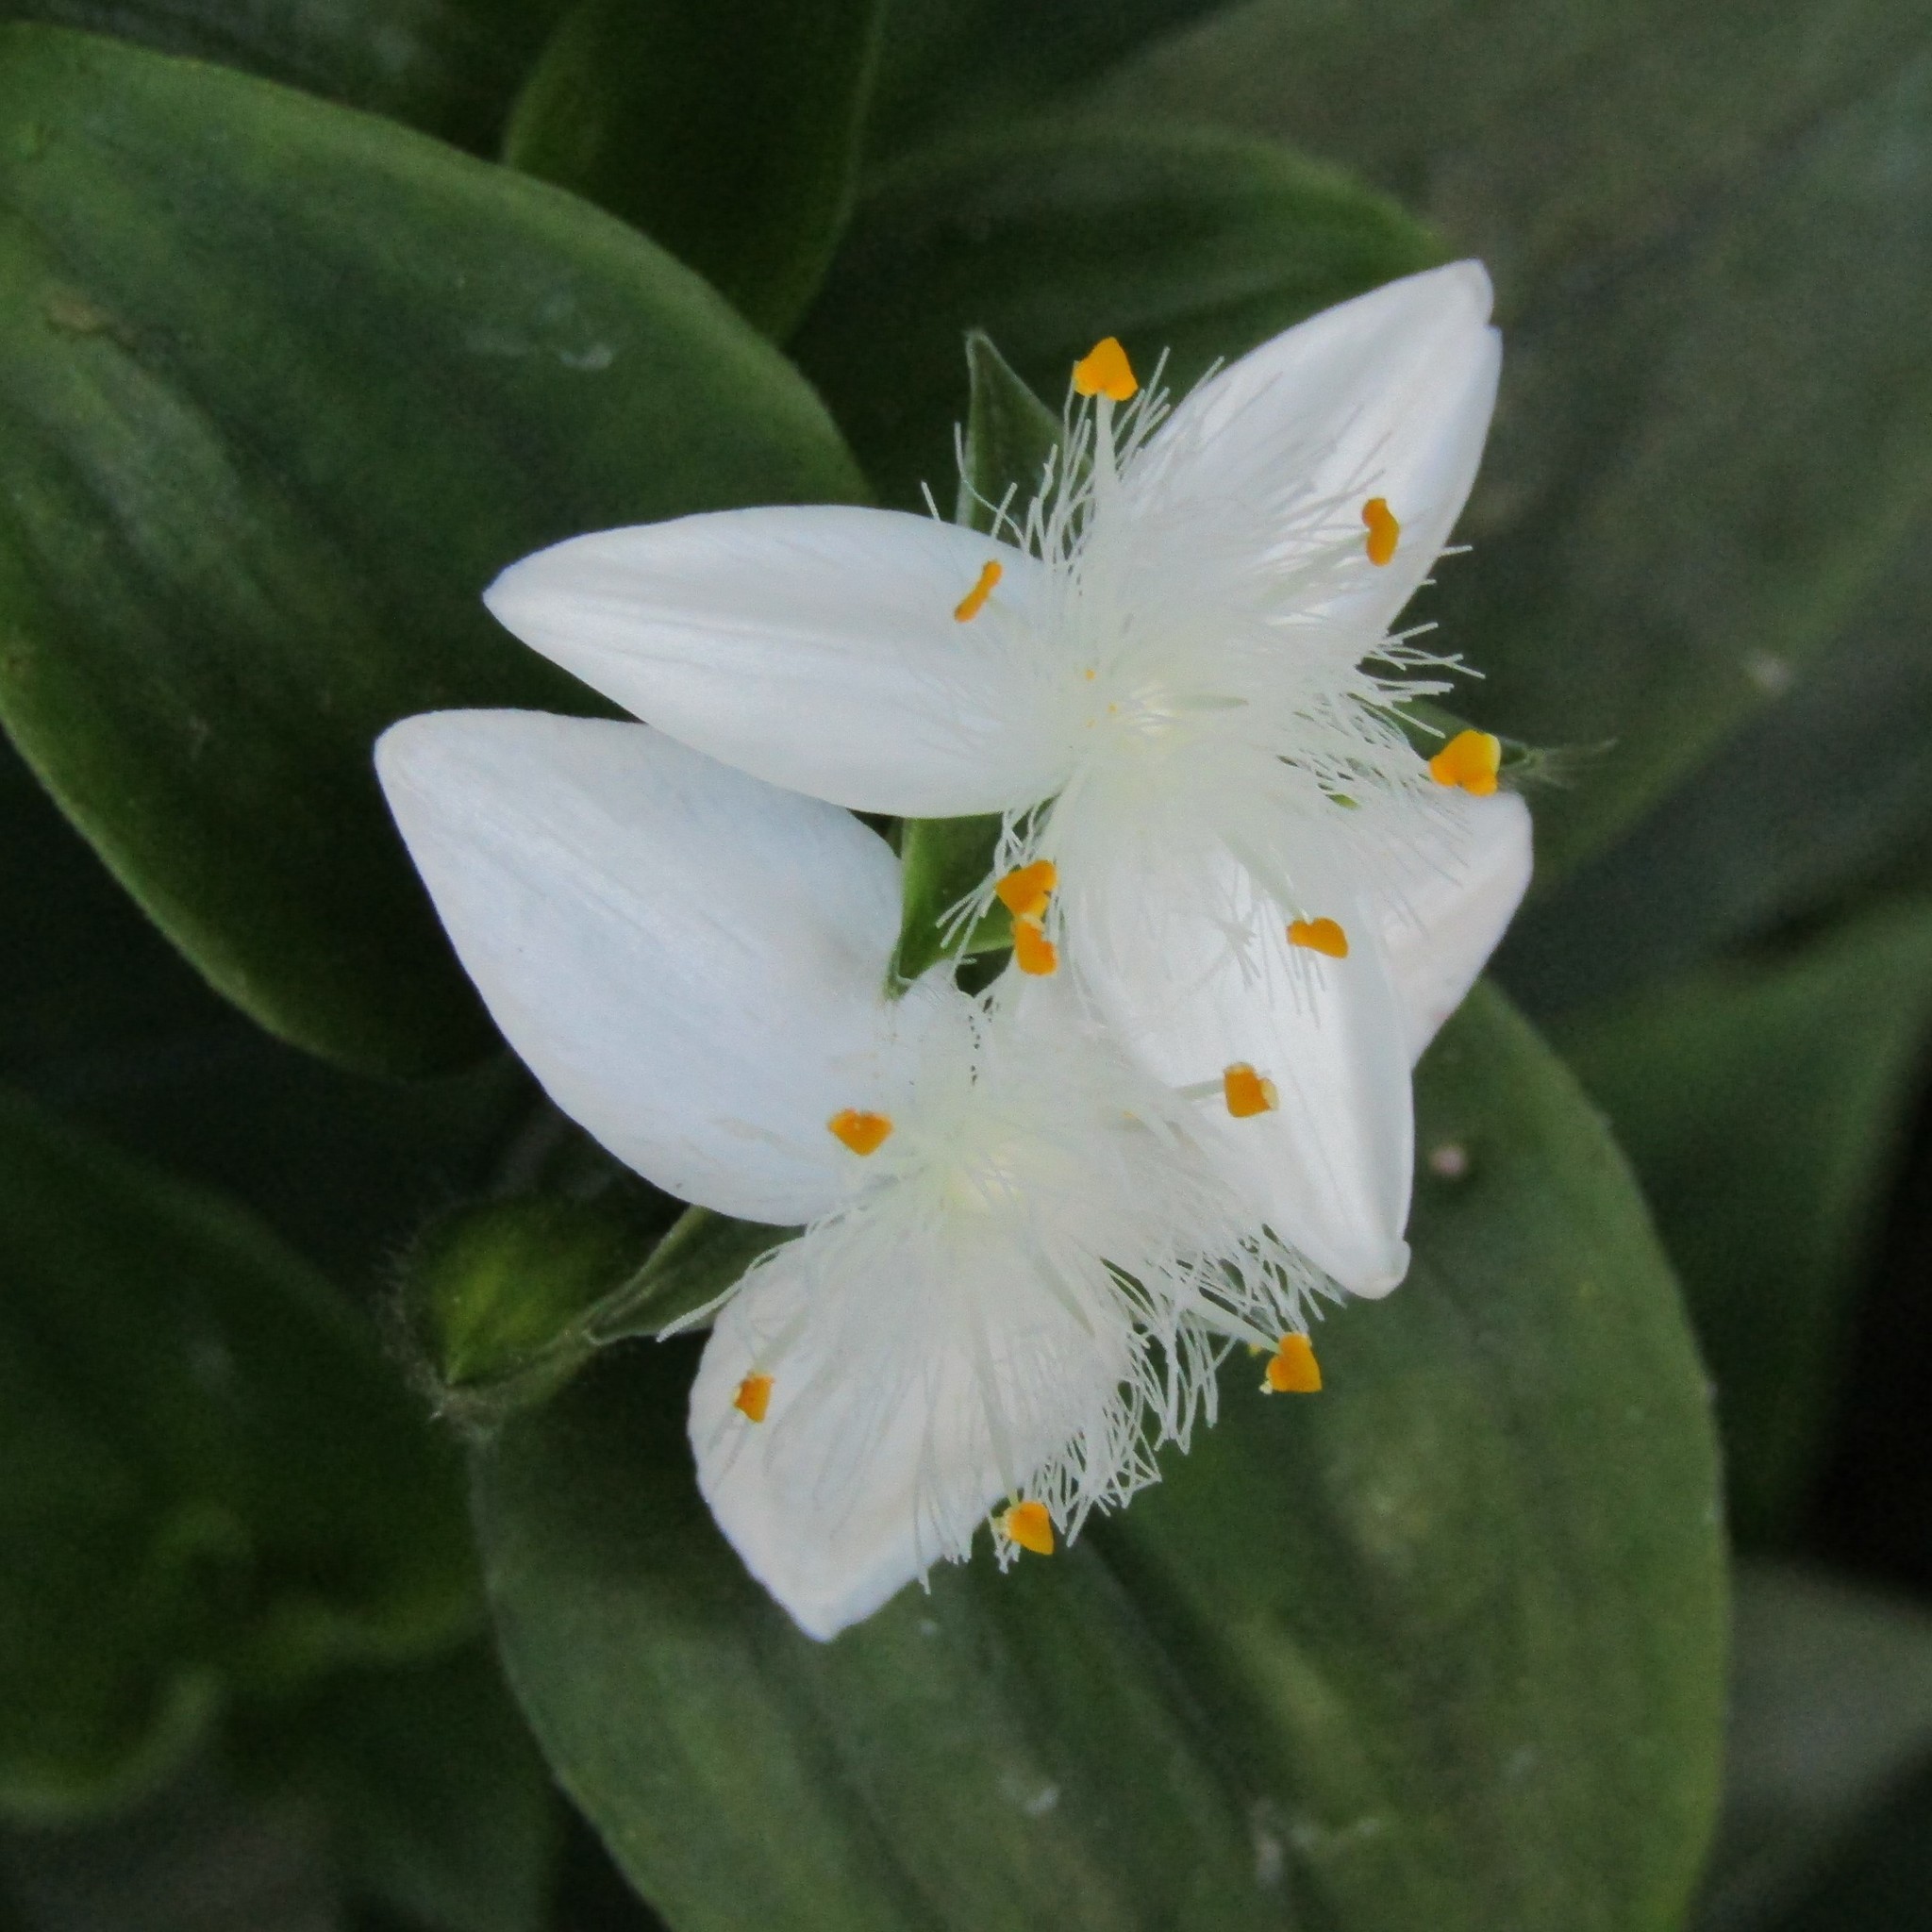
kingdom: Plantae
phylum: Tracheophyta
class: Liliopsida
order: Commelinales
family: Commelinaceae
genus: Tradescantia
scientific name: Tradescantia fluminensis
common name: Wandering-jew
